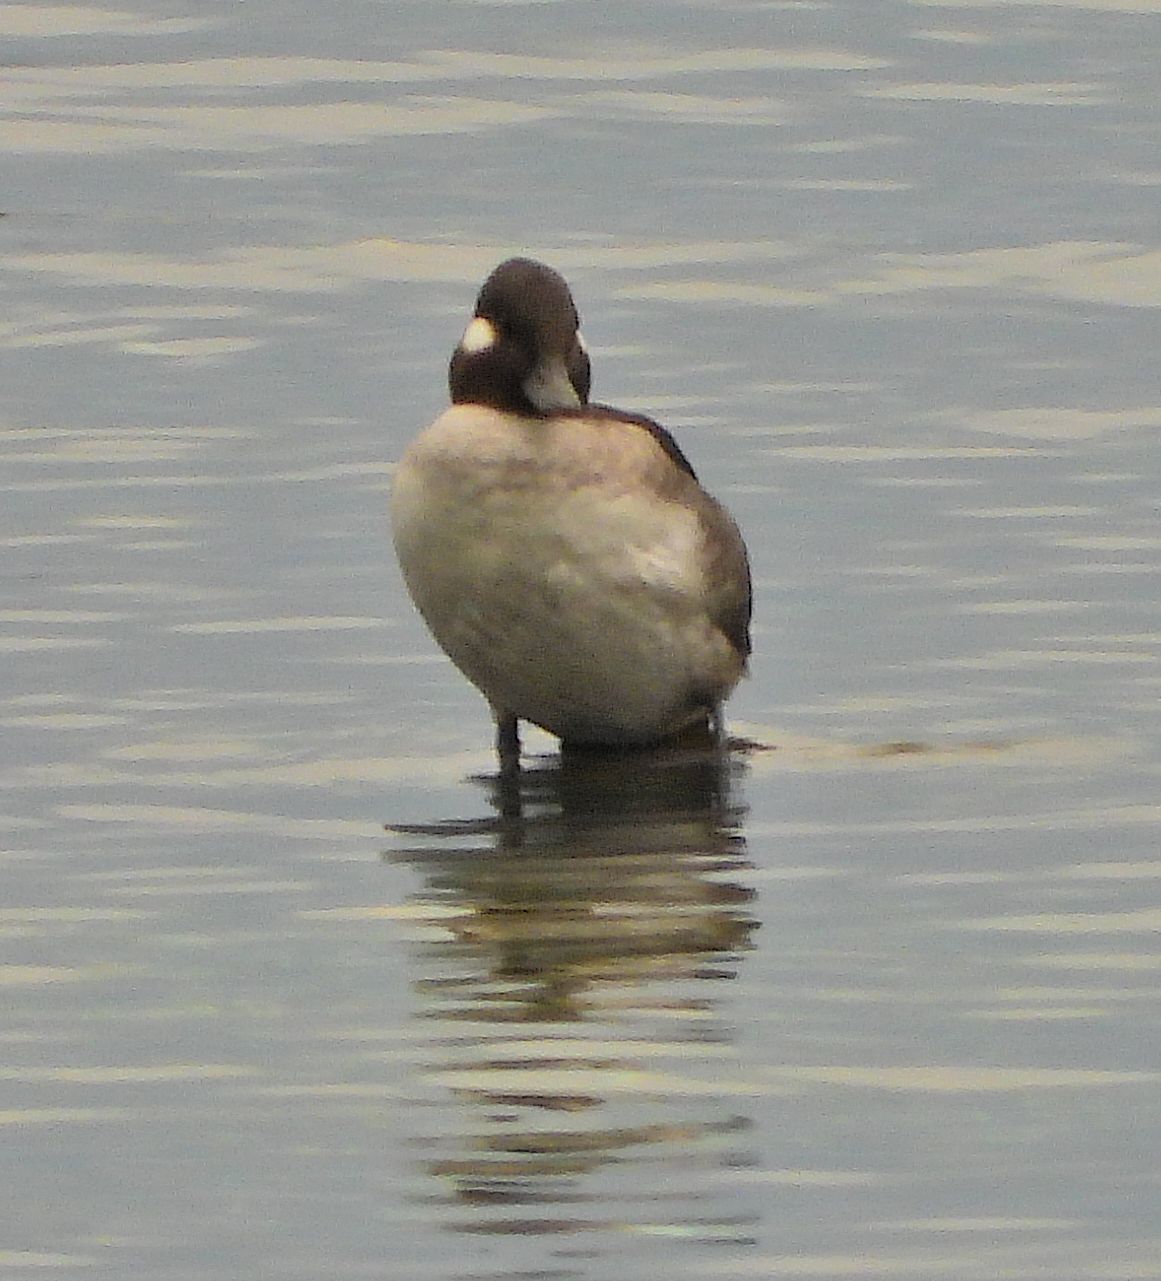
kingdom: Animalia
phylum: Chordata
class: Aves
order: Anseriformes
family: Anatidae
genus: Bucephala
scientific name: Bucephala albeola
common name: Bufflehead
